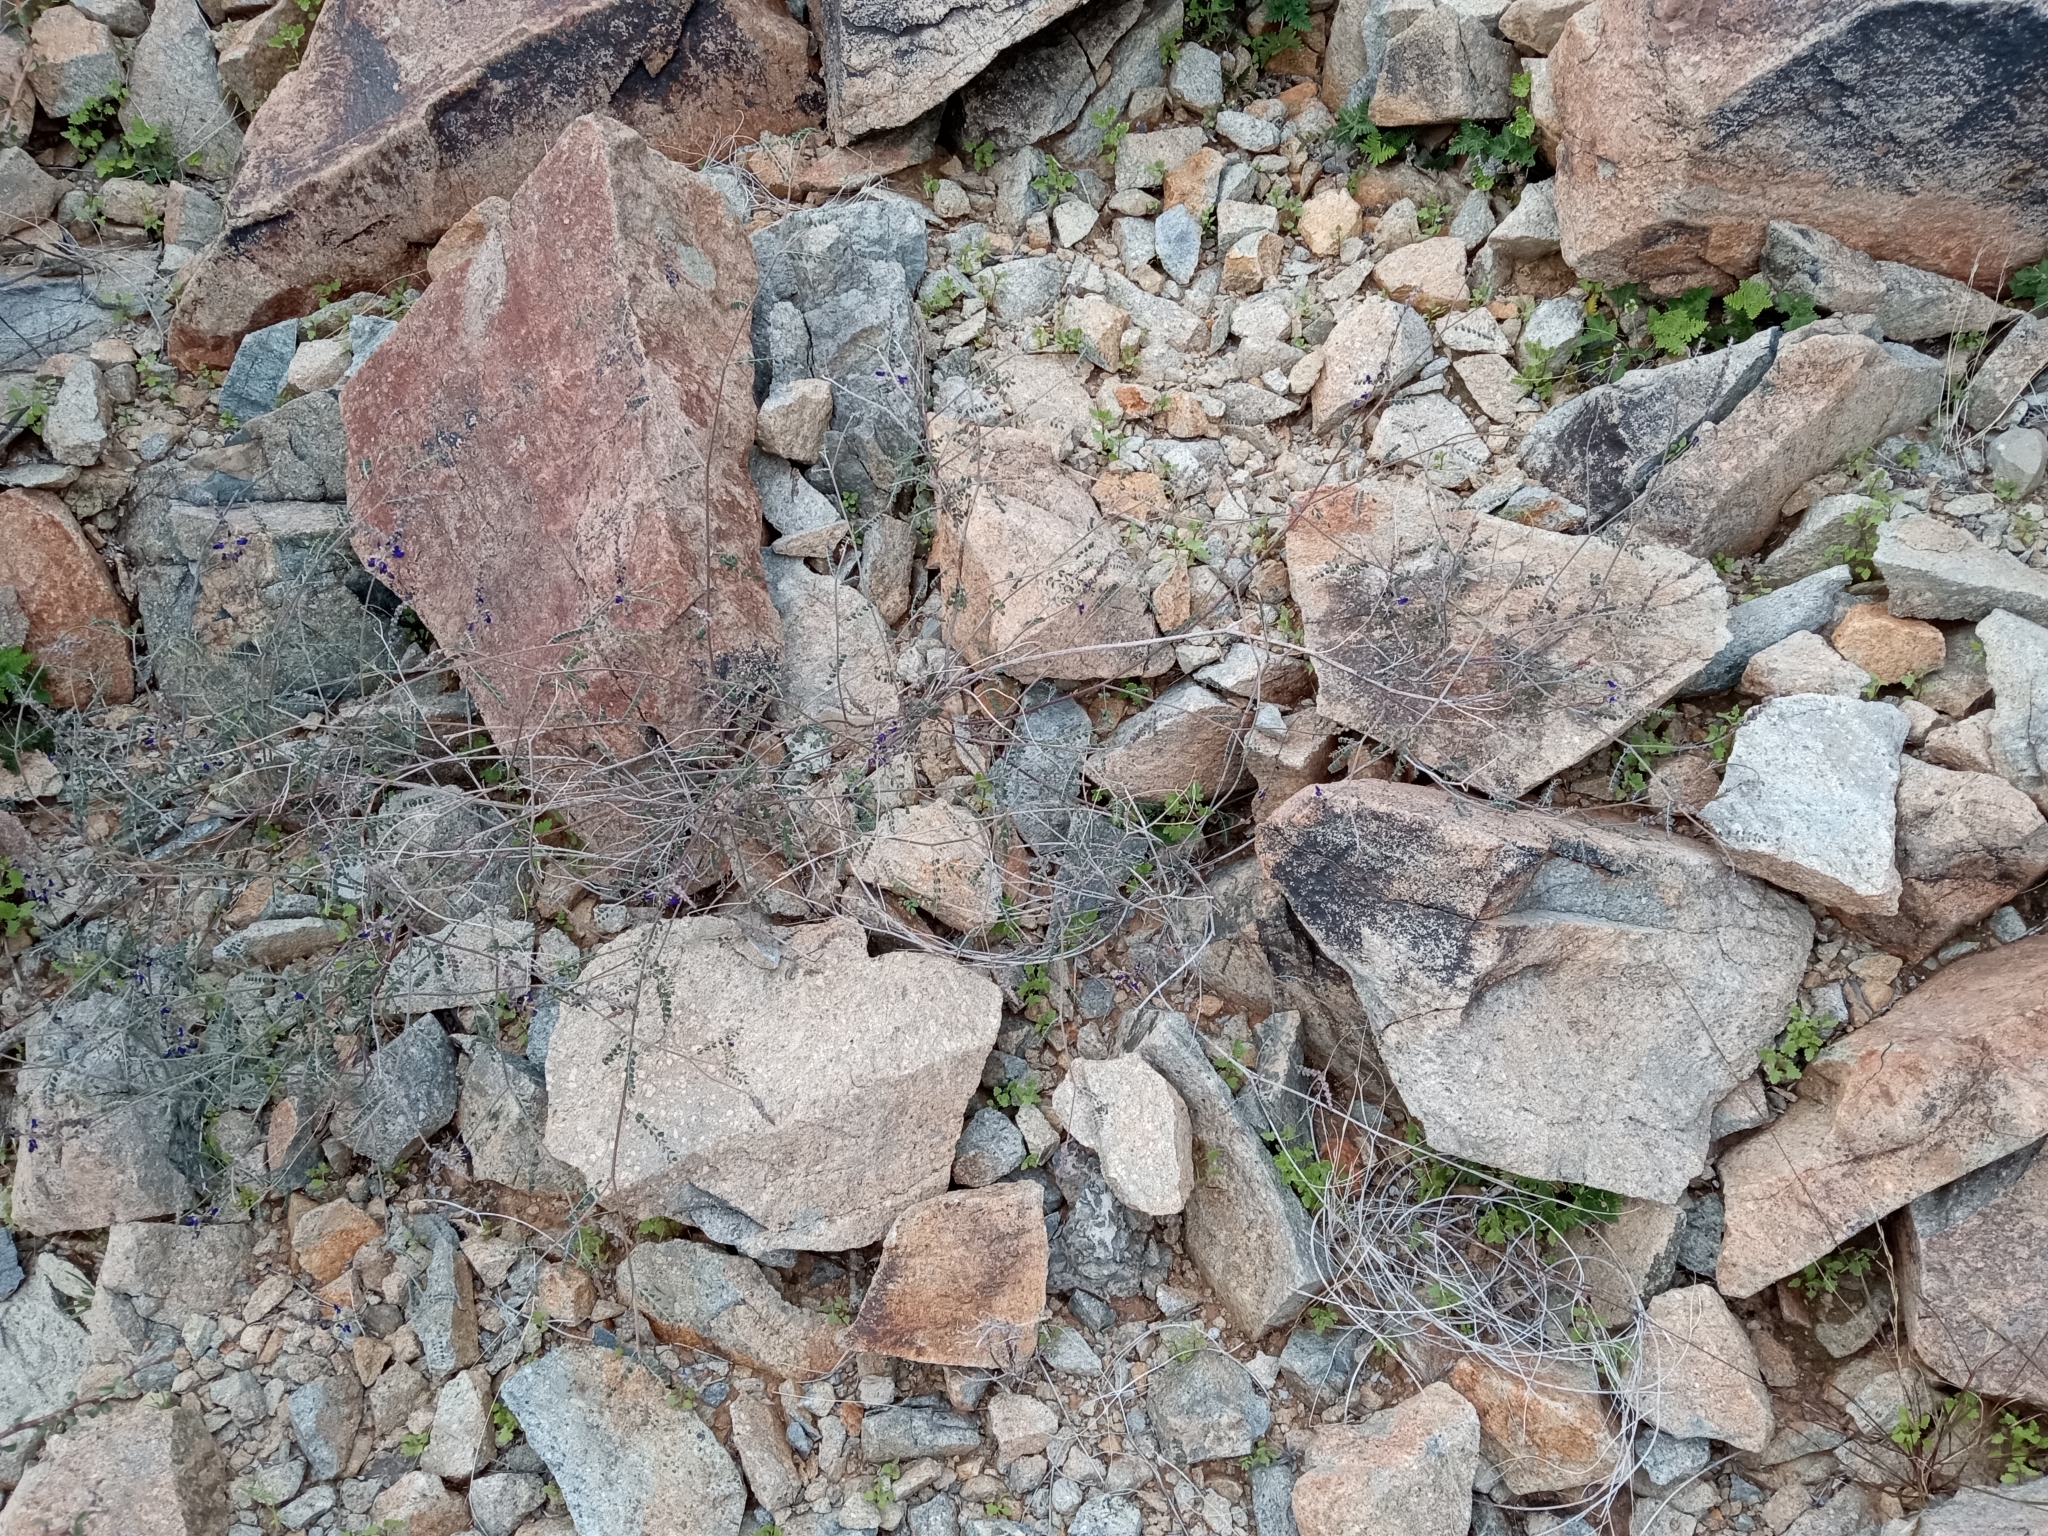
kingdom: Plantae
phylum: Tracheophyta
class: Magnoliopsida
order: Fabales
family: Fabaceae
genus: Marina
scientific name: Marina parryi
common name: Parry's marina
